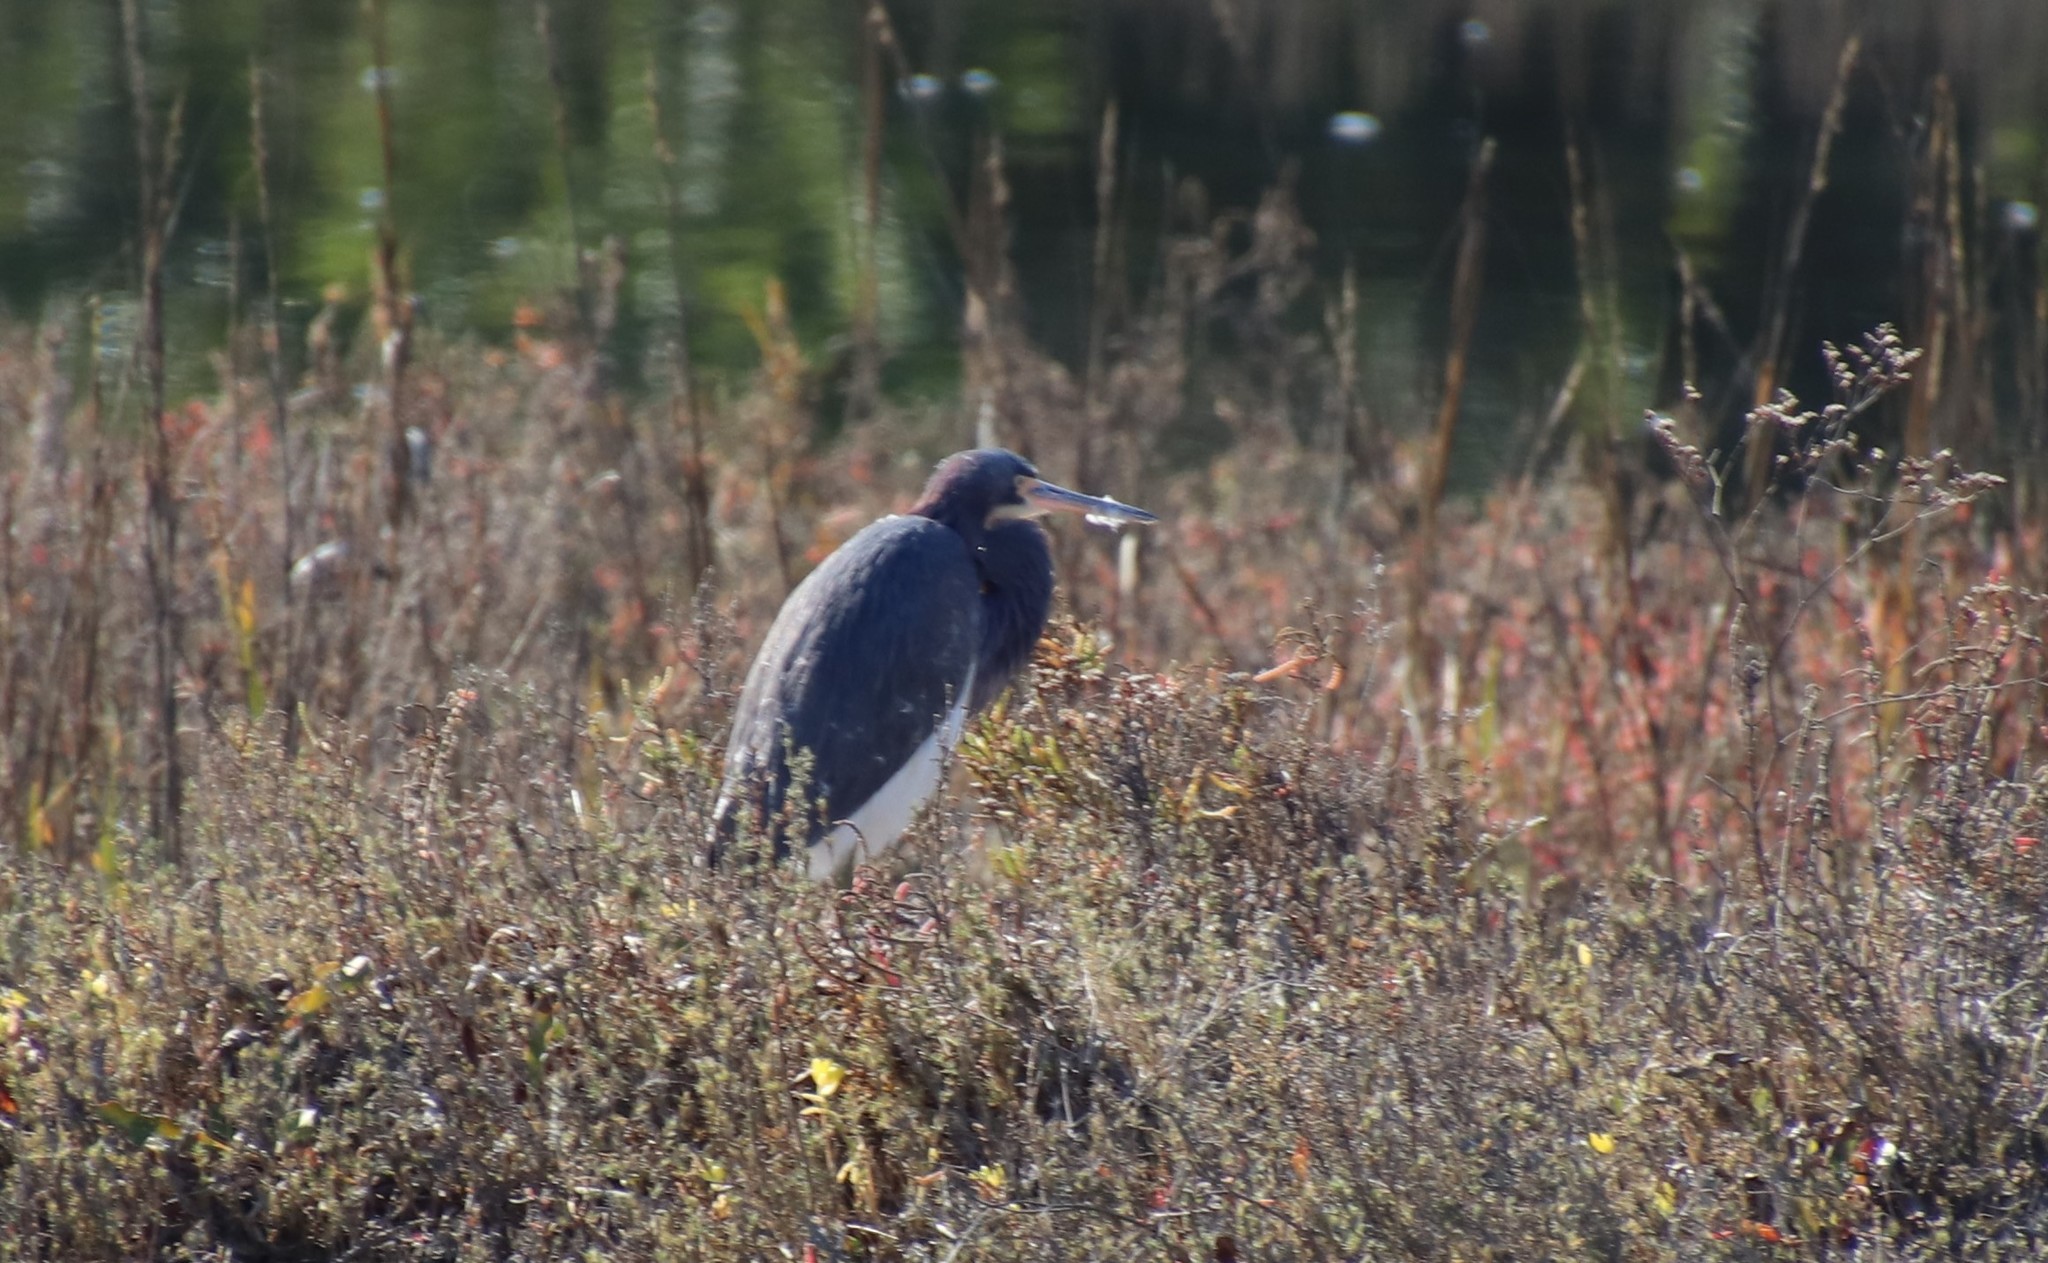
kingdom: Animalia
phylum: Chordata
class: Aves
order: Pelecaniformes
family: Ardeidae
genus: Egretta
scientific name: Egretta tricolor
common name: Tricolored heron
